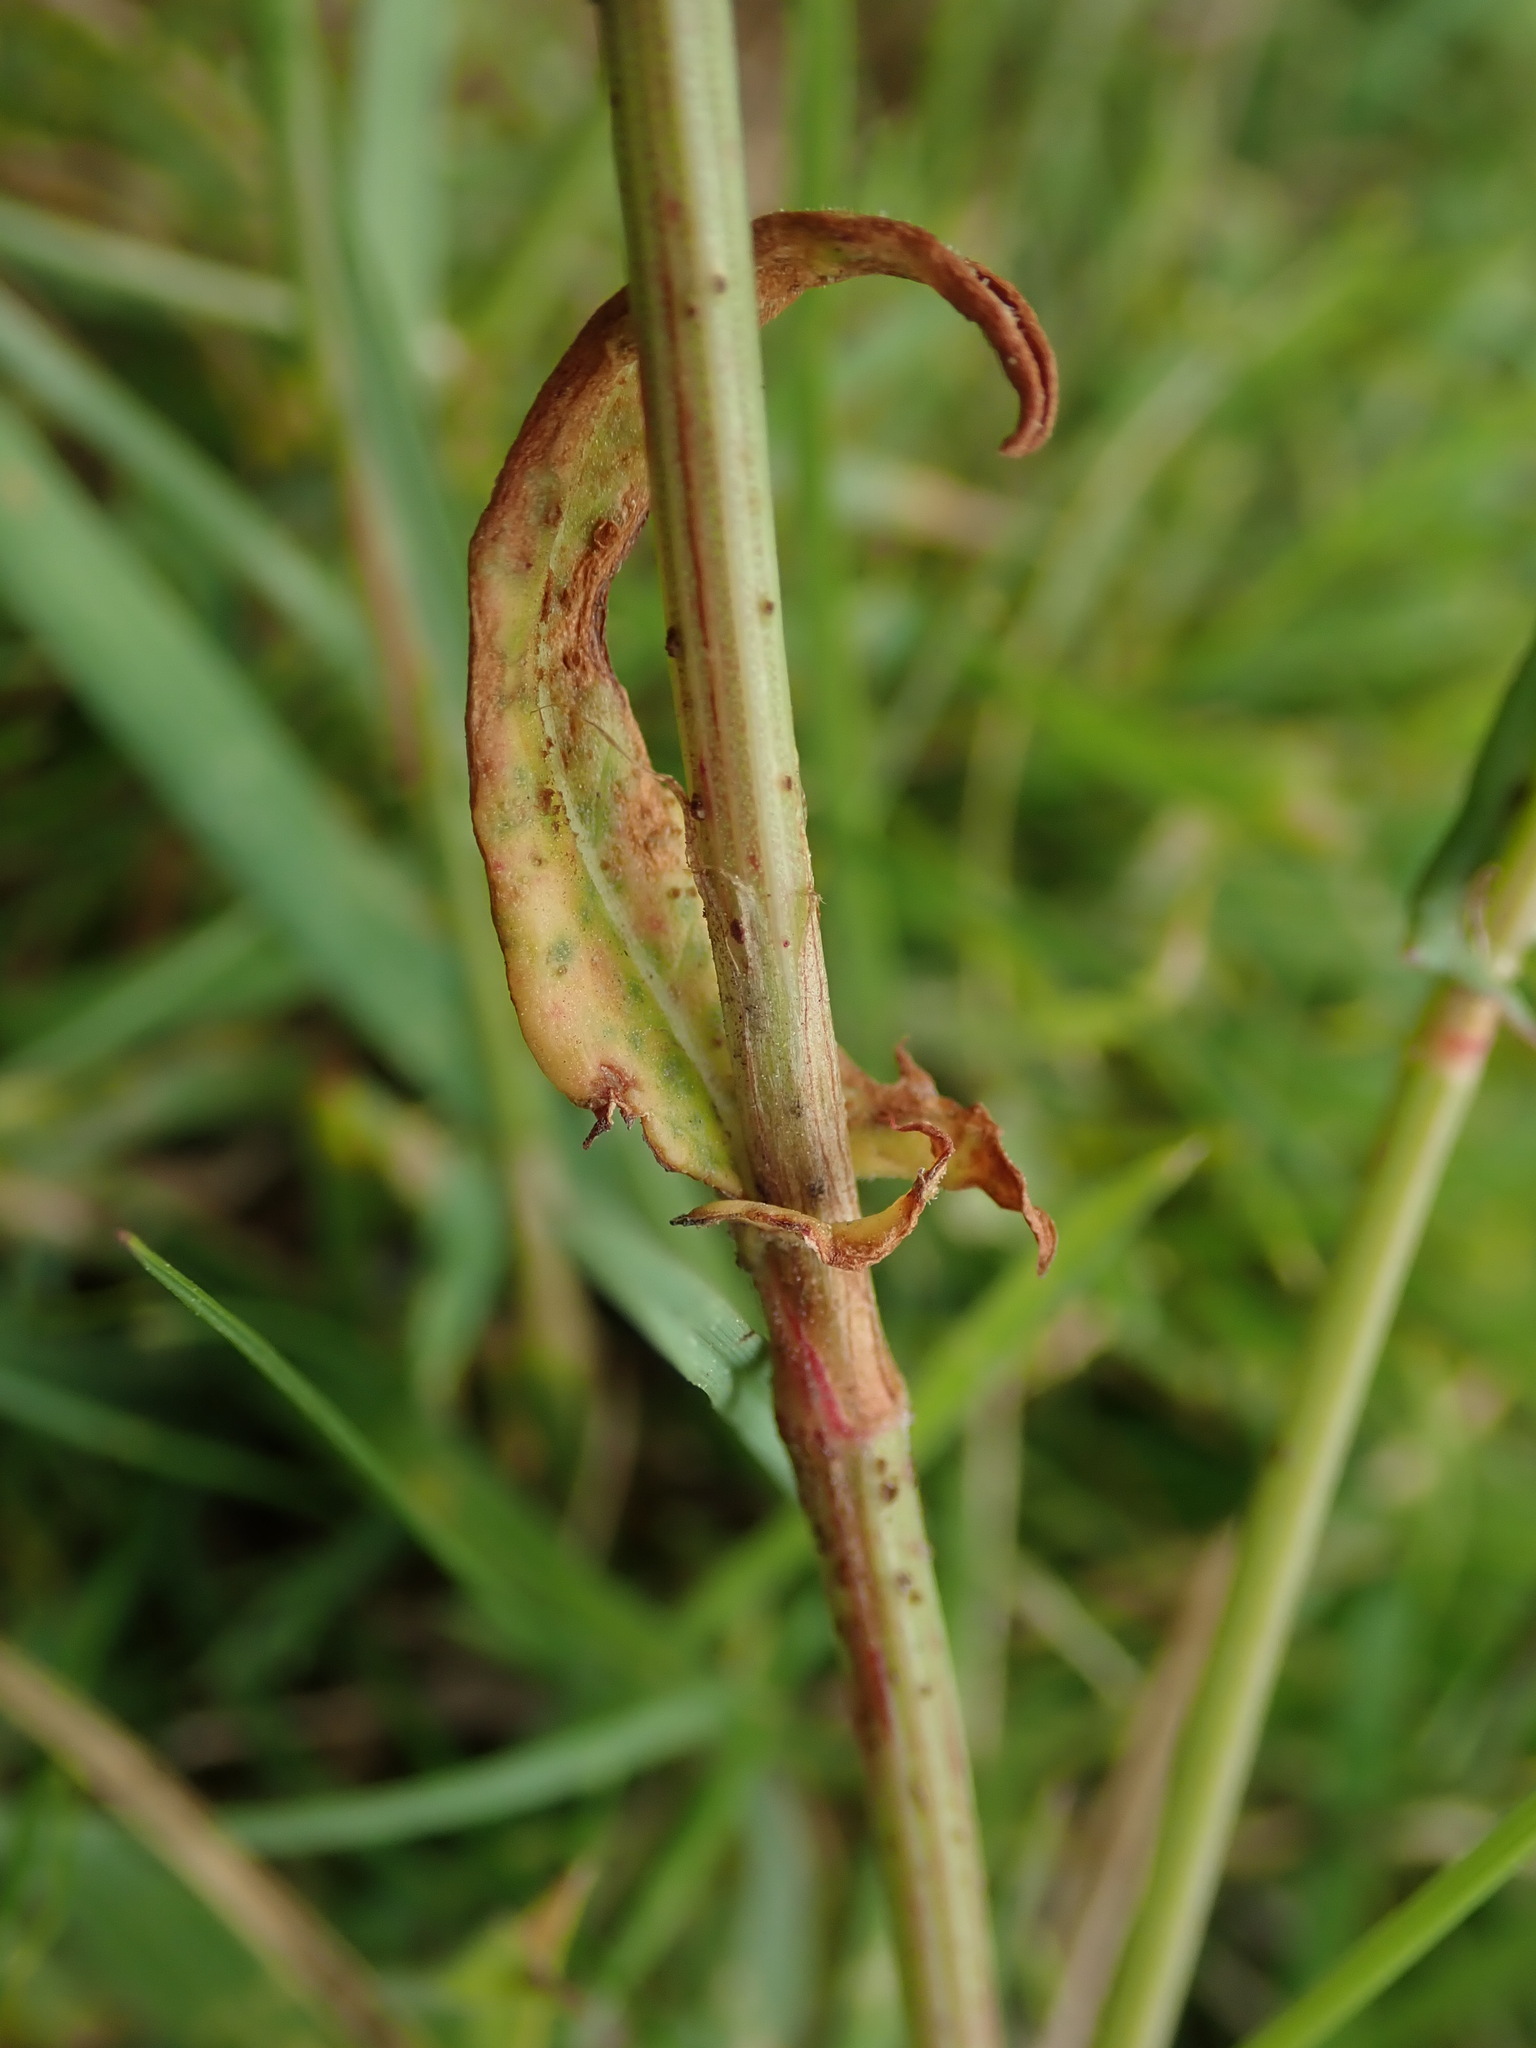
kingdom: Plantae
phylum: Tracheophyta
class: Magnoliopsida
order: Caryophyllales
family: Polygonaceae
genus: Rumex
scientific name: Rumex acetosa
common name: Garden sorrel
